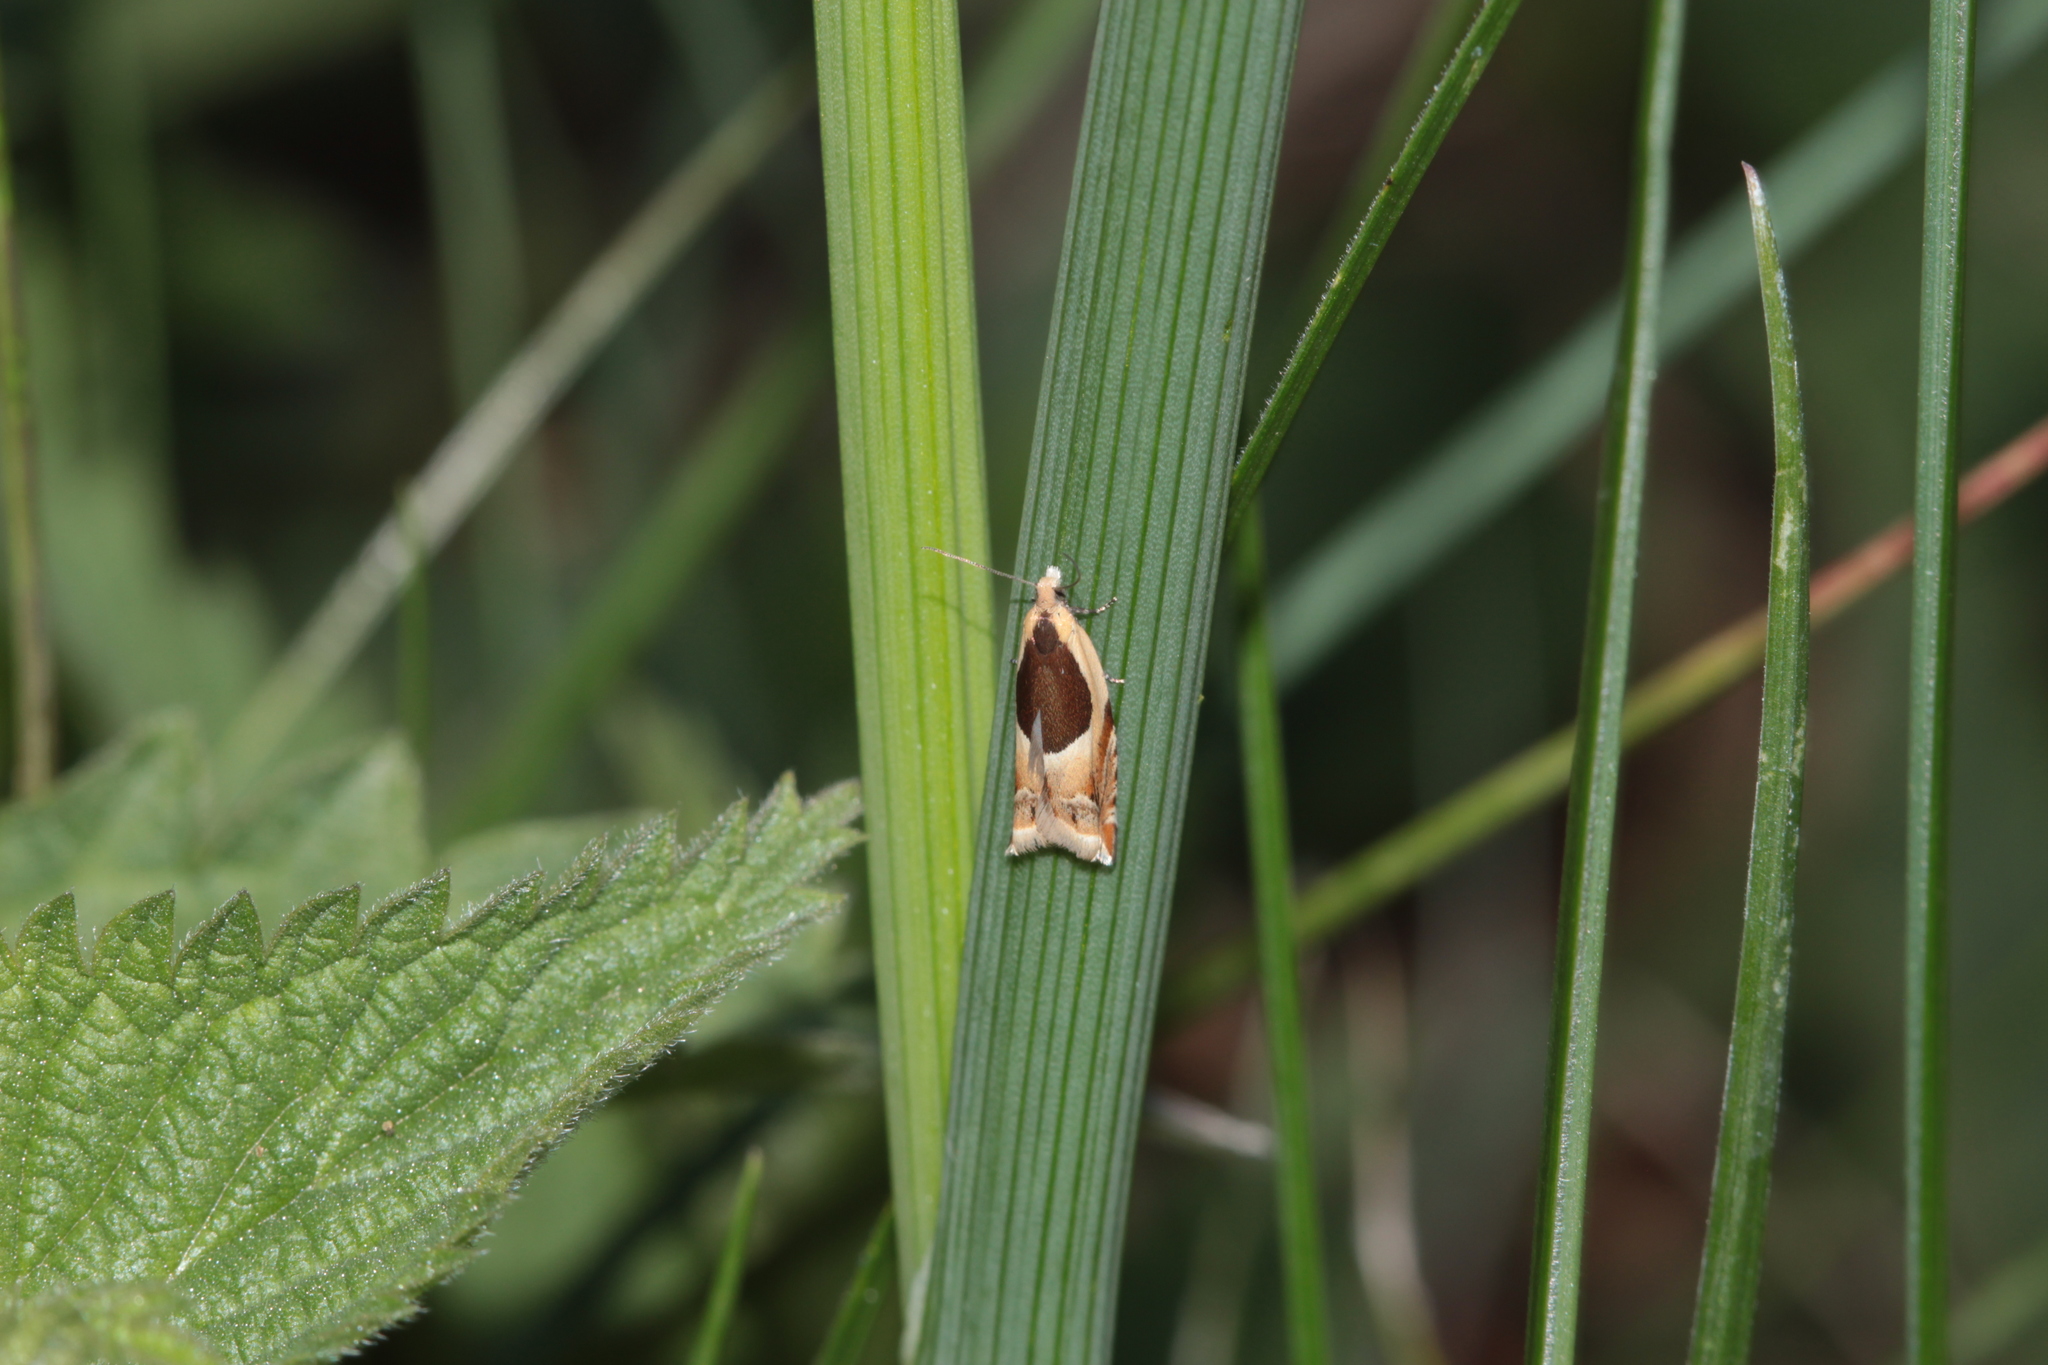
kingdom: Animalia
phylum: Arthropoda
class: Insecta
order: Lepidoptera
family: Tortricidae
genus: Ancylis
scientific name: Ancylis badiana
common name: Common roller
